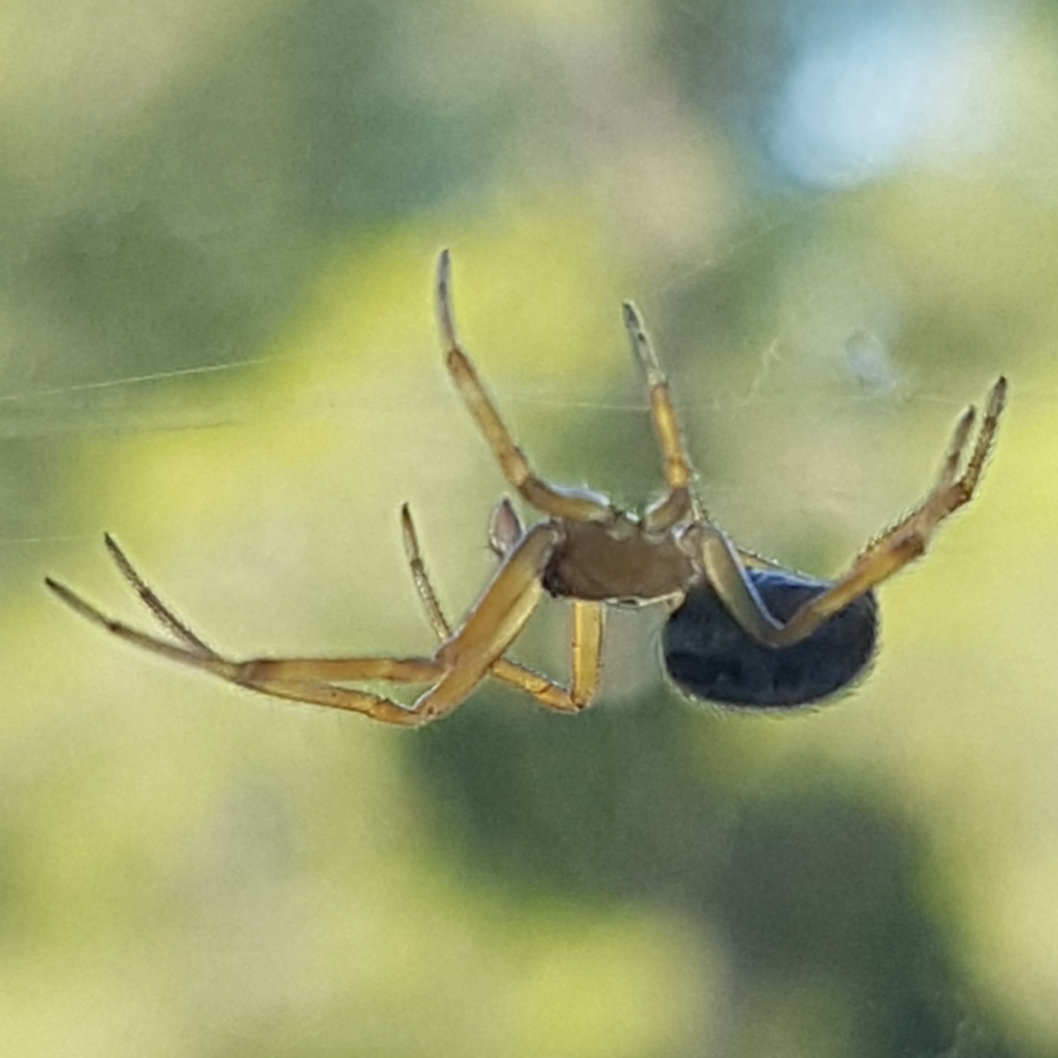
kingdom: Animalia
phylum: Arthropoda
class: Arachnida
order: Araneae
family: Theridiidae
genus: Steatoda
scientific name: Steatoda nobilis
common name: Cobweb weaver
